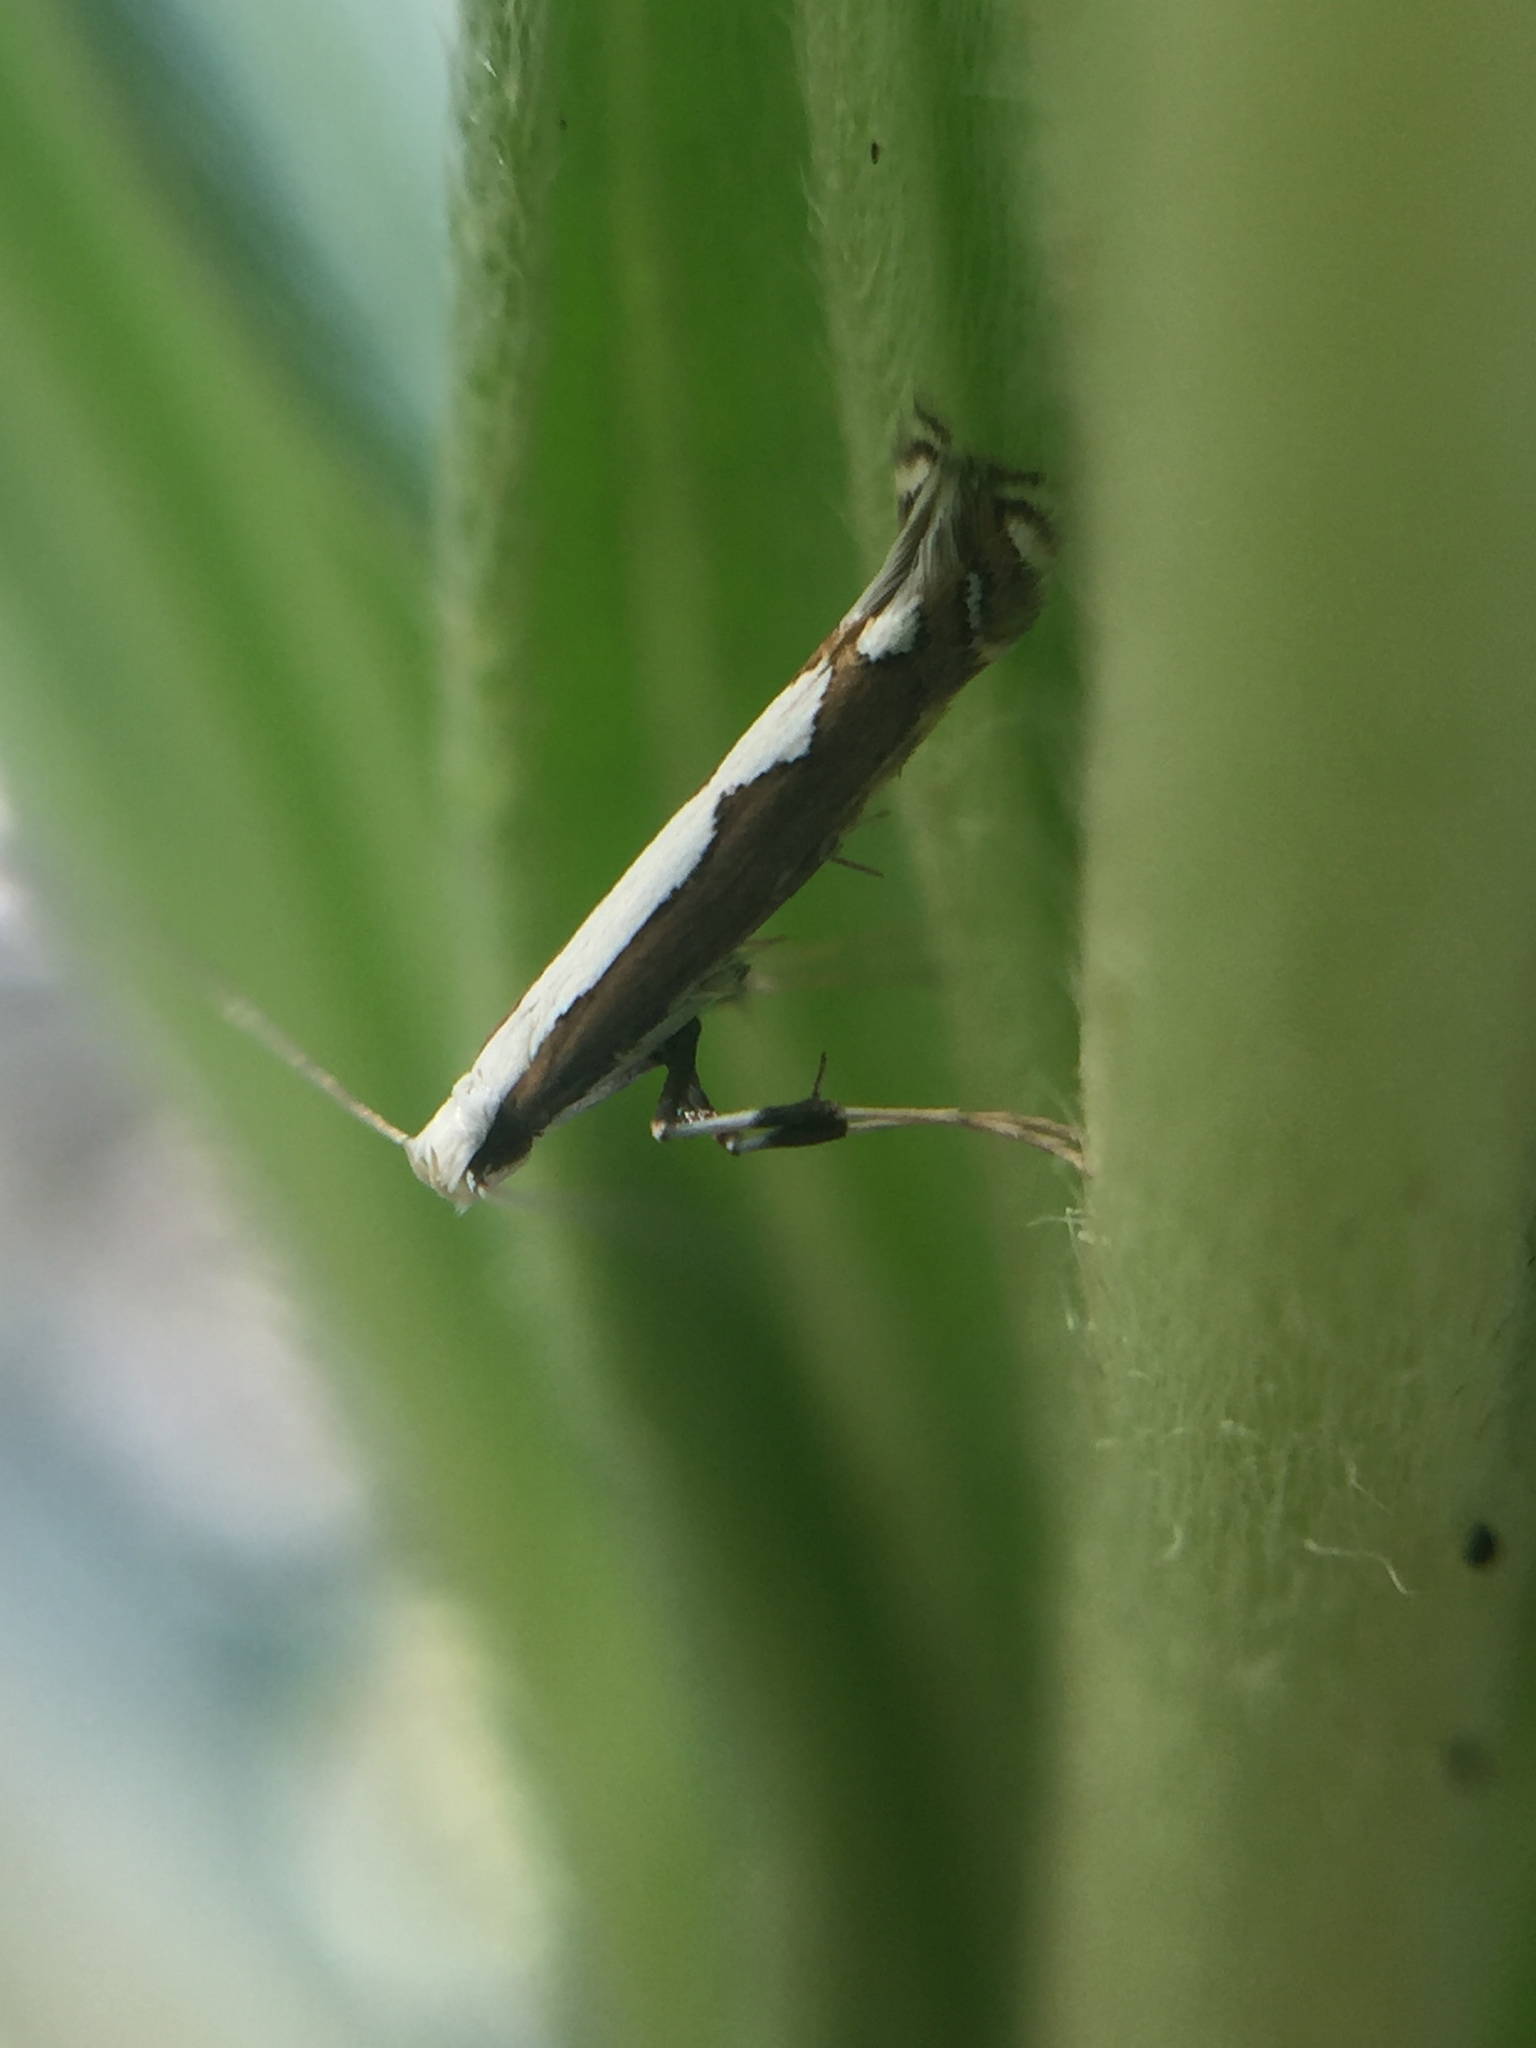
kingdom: Animalia
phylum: Arthropoda
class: Insecta
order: Lepidoptera
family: Gracillariidae
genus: Dialectica
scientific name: Dialectica scalariella
